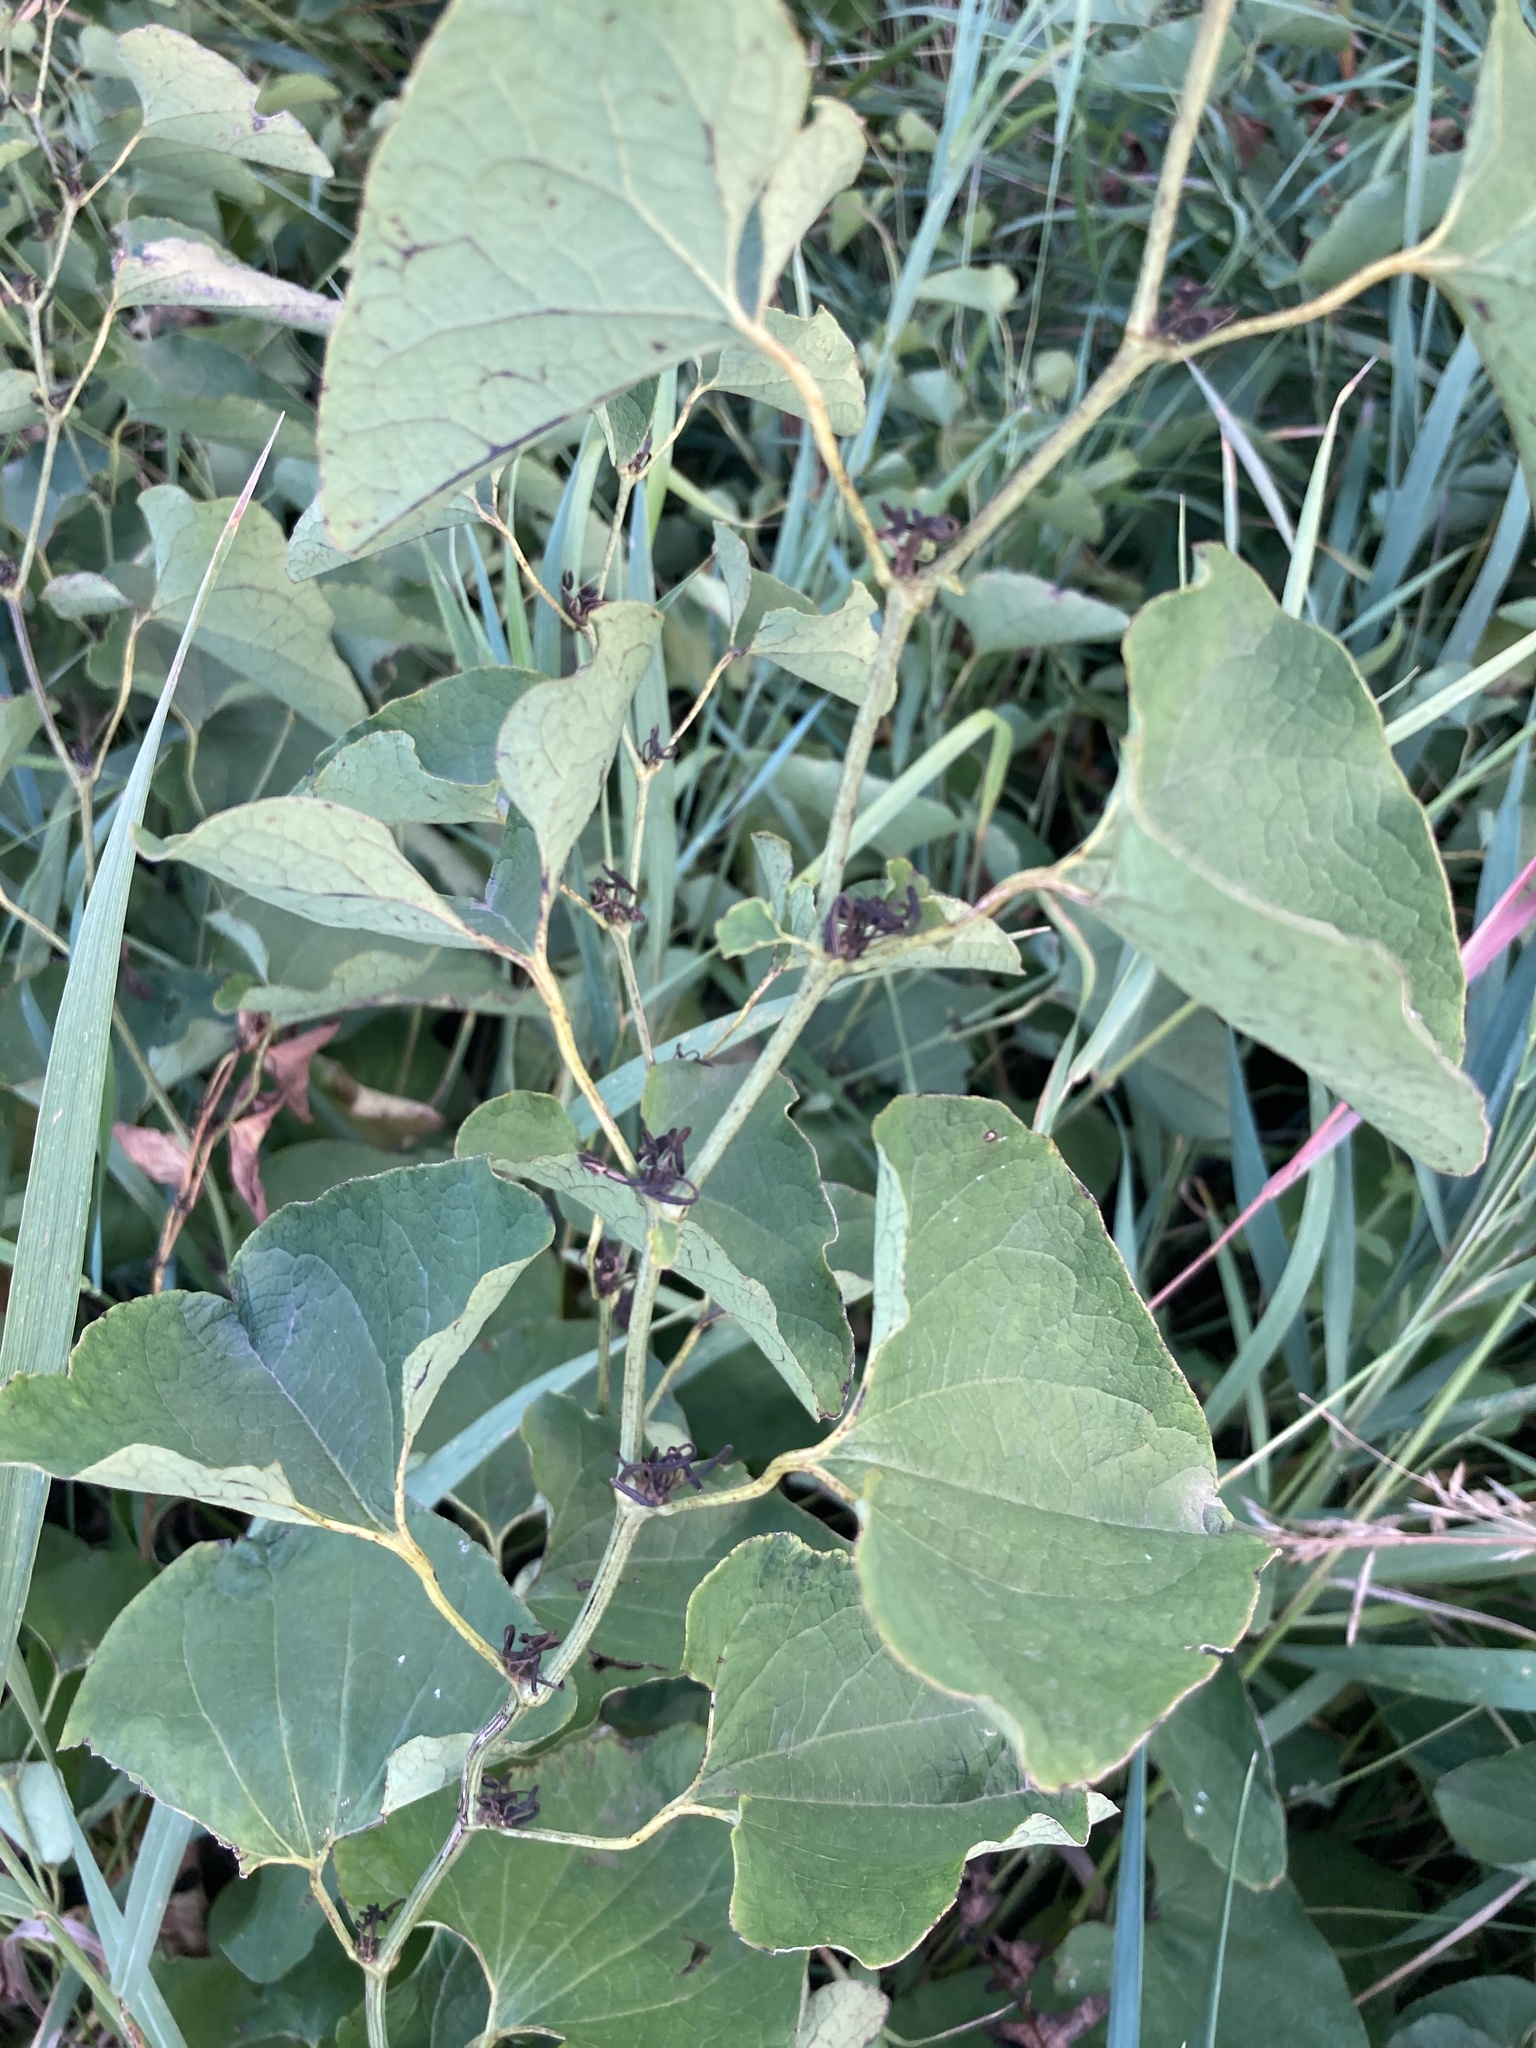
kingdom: Plantae
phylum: Tracheophyta
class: Magnoliopsida
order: Piperales
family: Aristolochiaceae
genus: Aristolochia
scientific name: Aristolochia clematitis
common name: Birthwort
